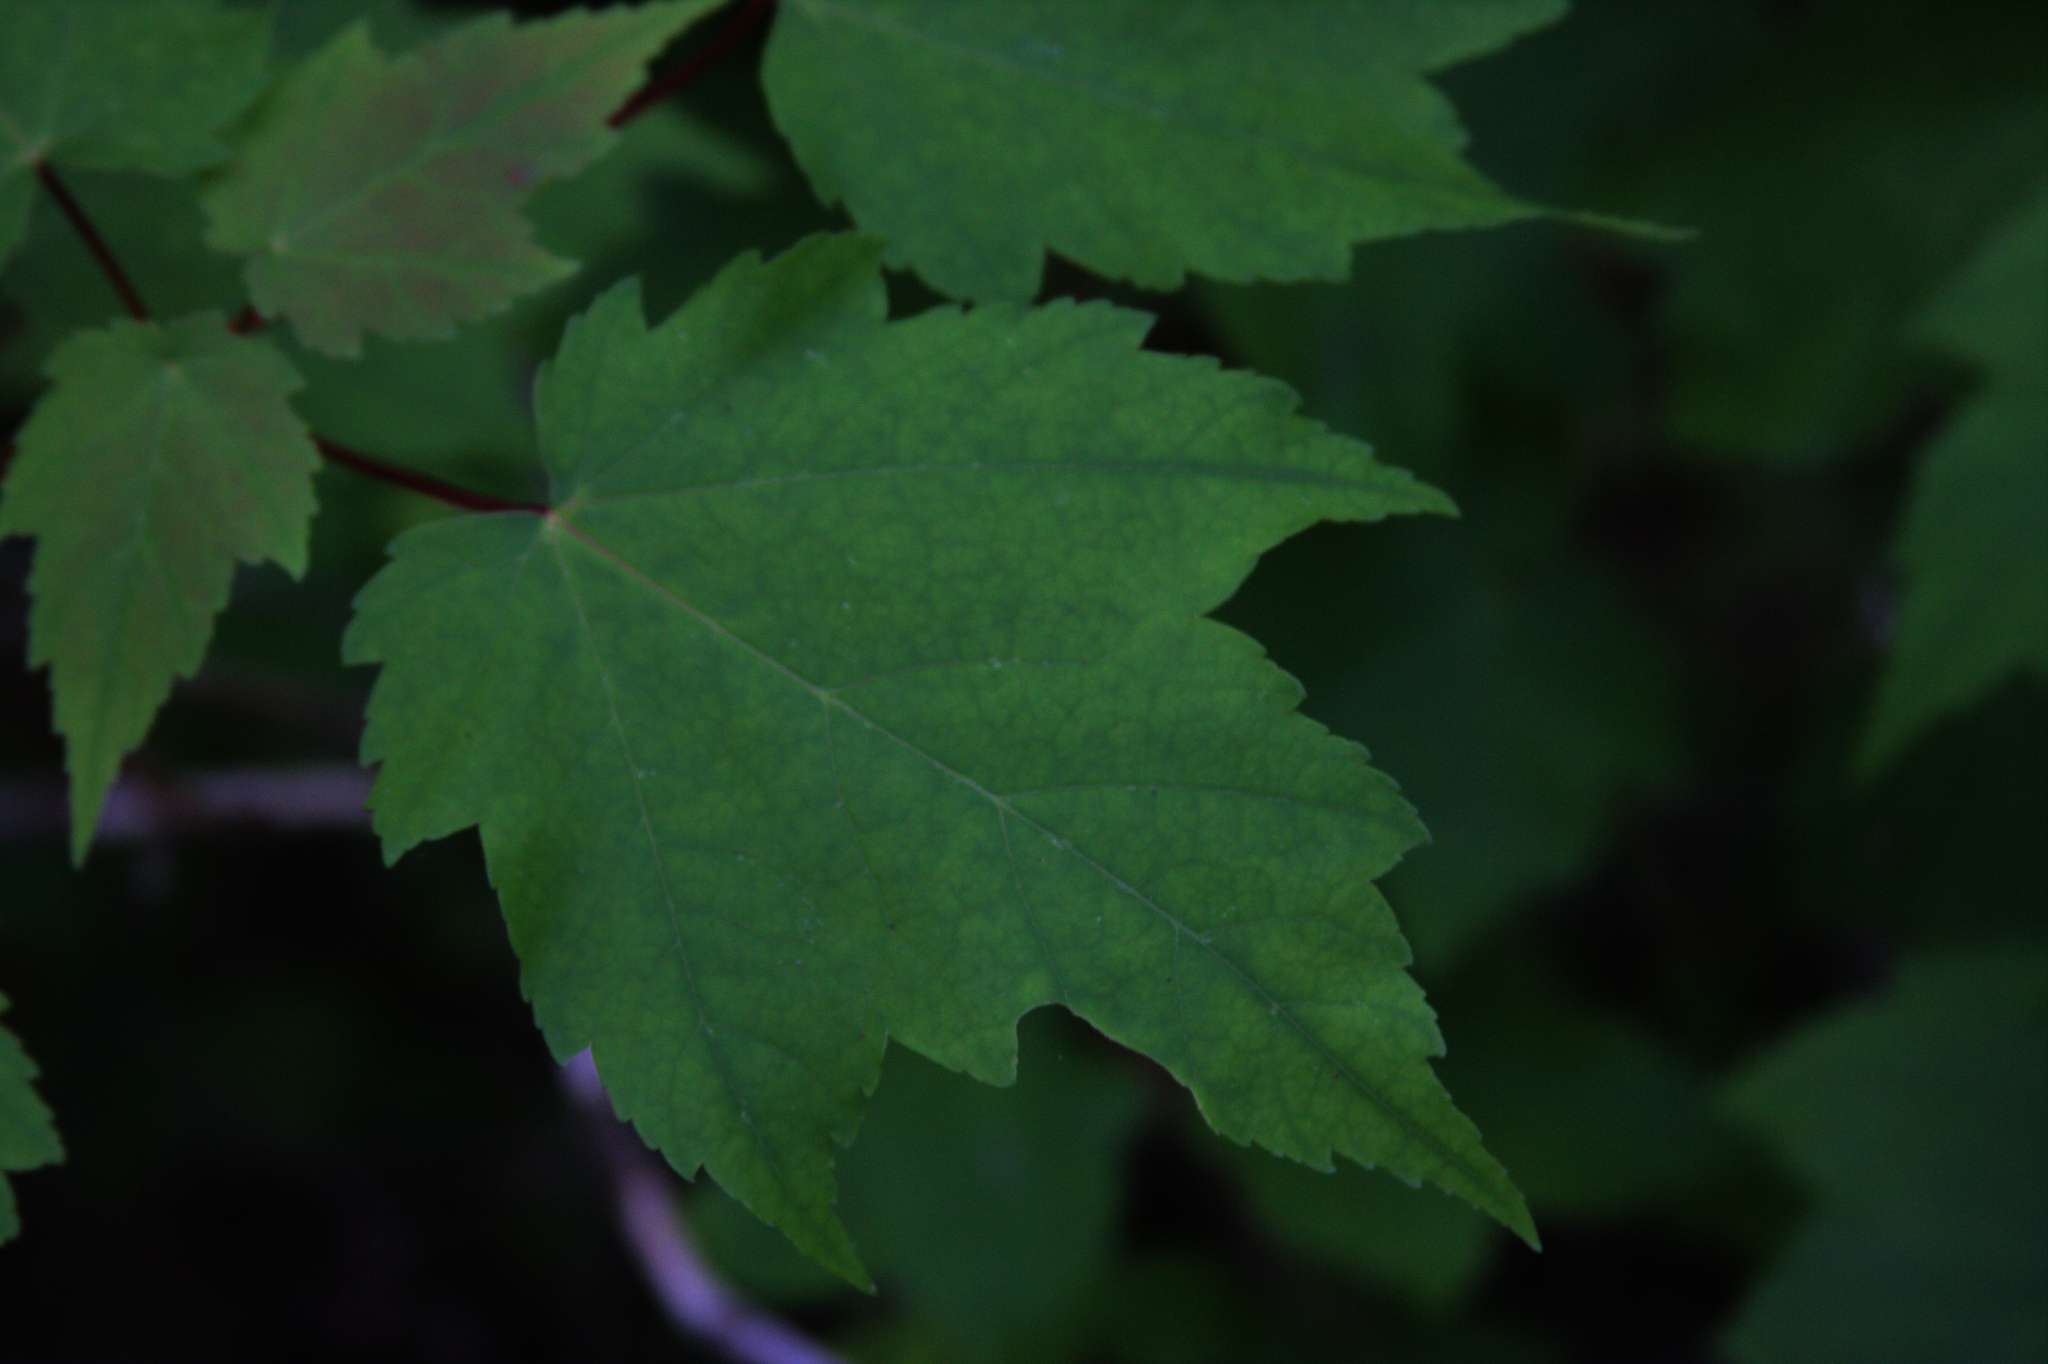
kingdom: Plantae
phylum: Tracheophyta
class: Magnoliopsida
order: Sapindales
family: Sapindaceae
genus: Acer
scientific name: Acer rubrum
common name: Red maple
